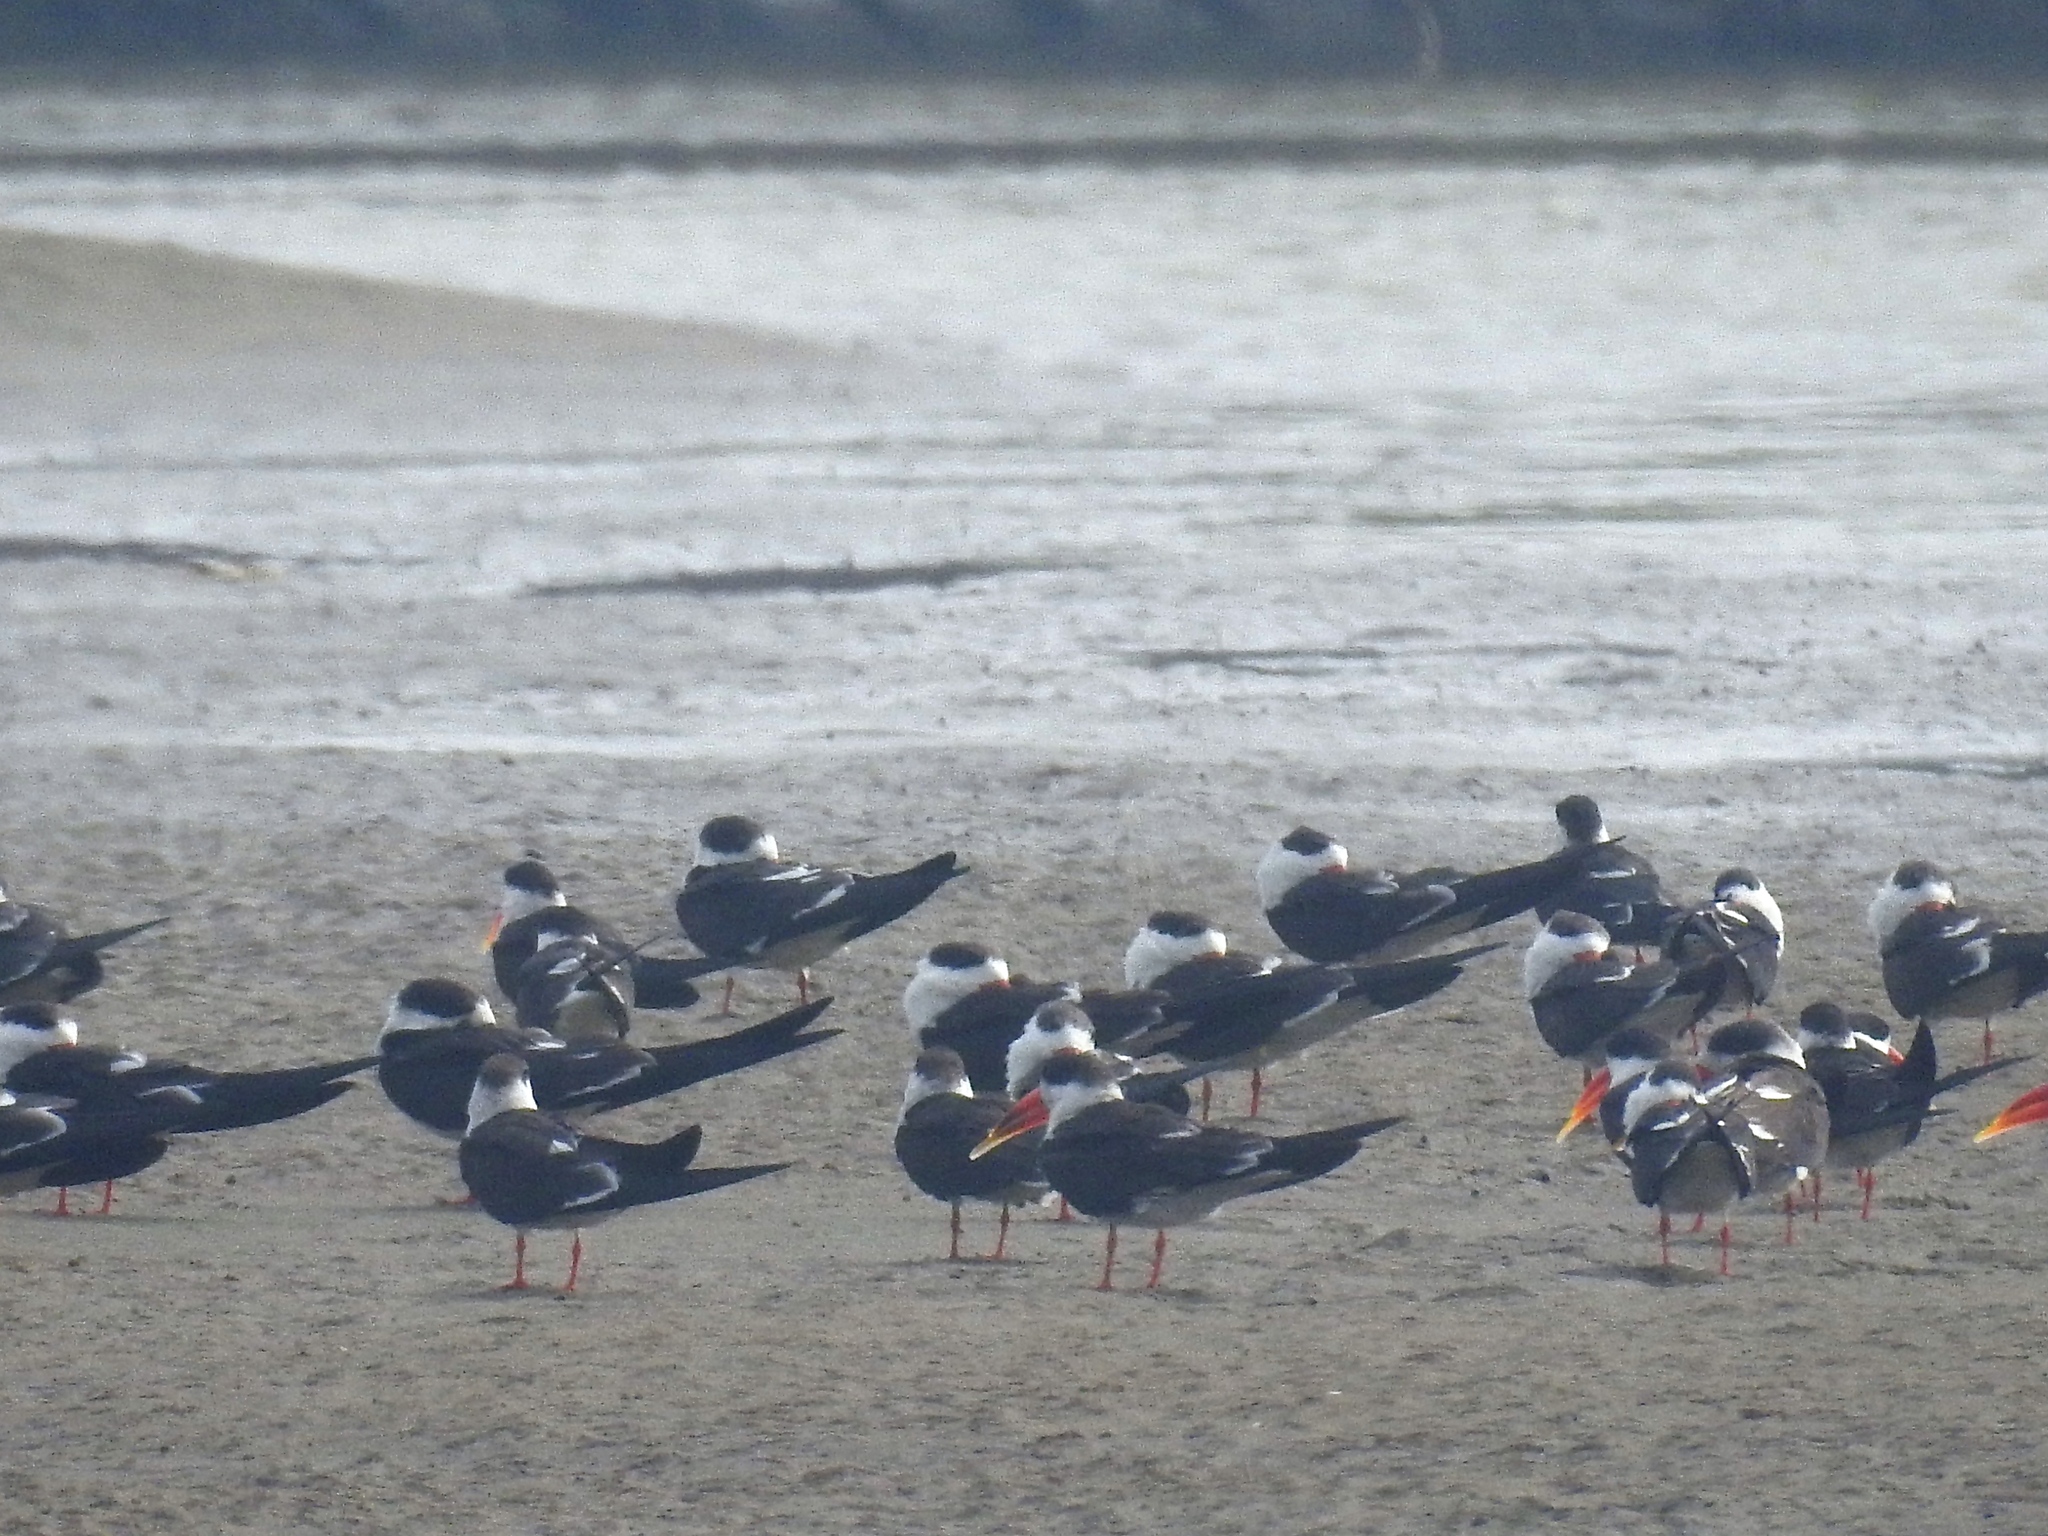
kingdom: Animalia
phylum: Chordata
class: Aves
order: Charadriiformes
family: Laridae
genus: Rynchops
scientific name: Rynchops albicollis
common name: Indian skimmer
